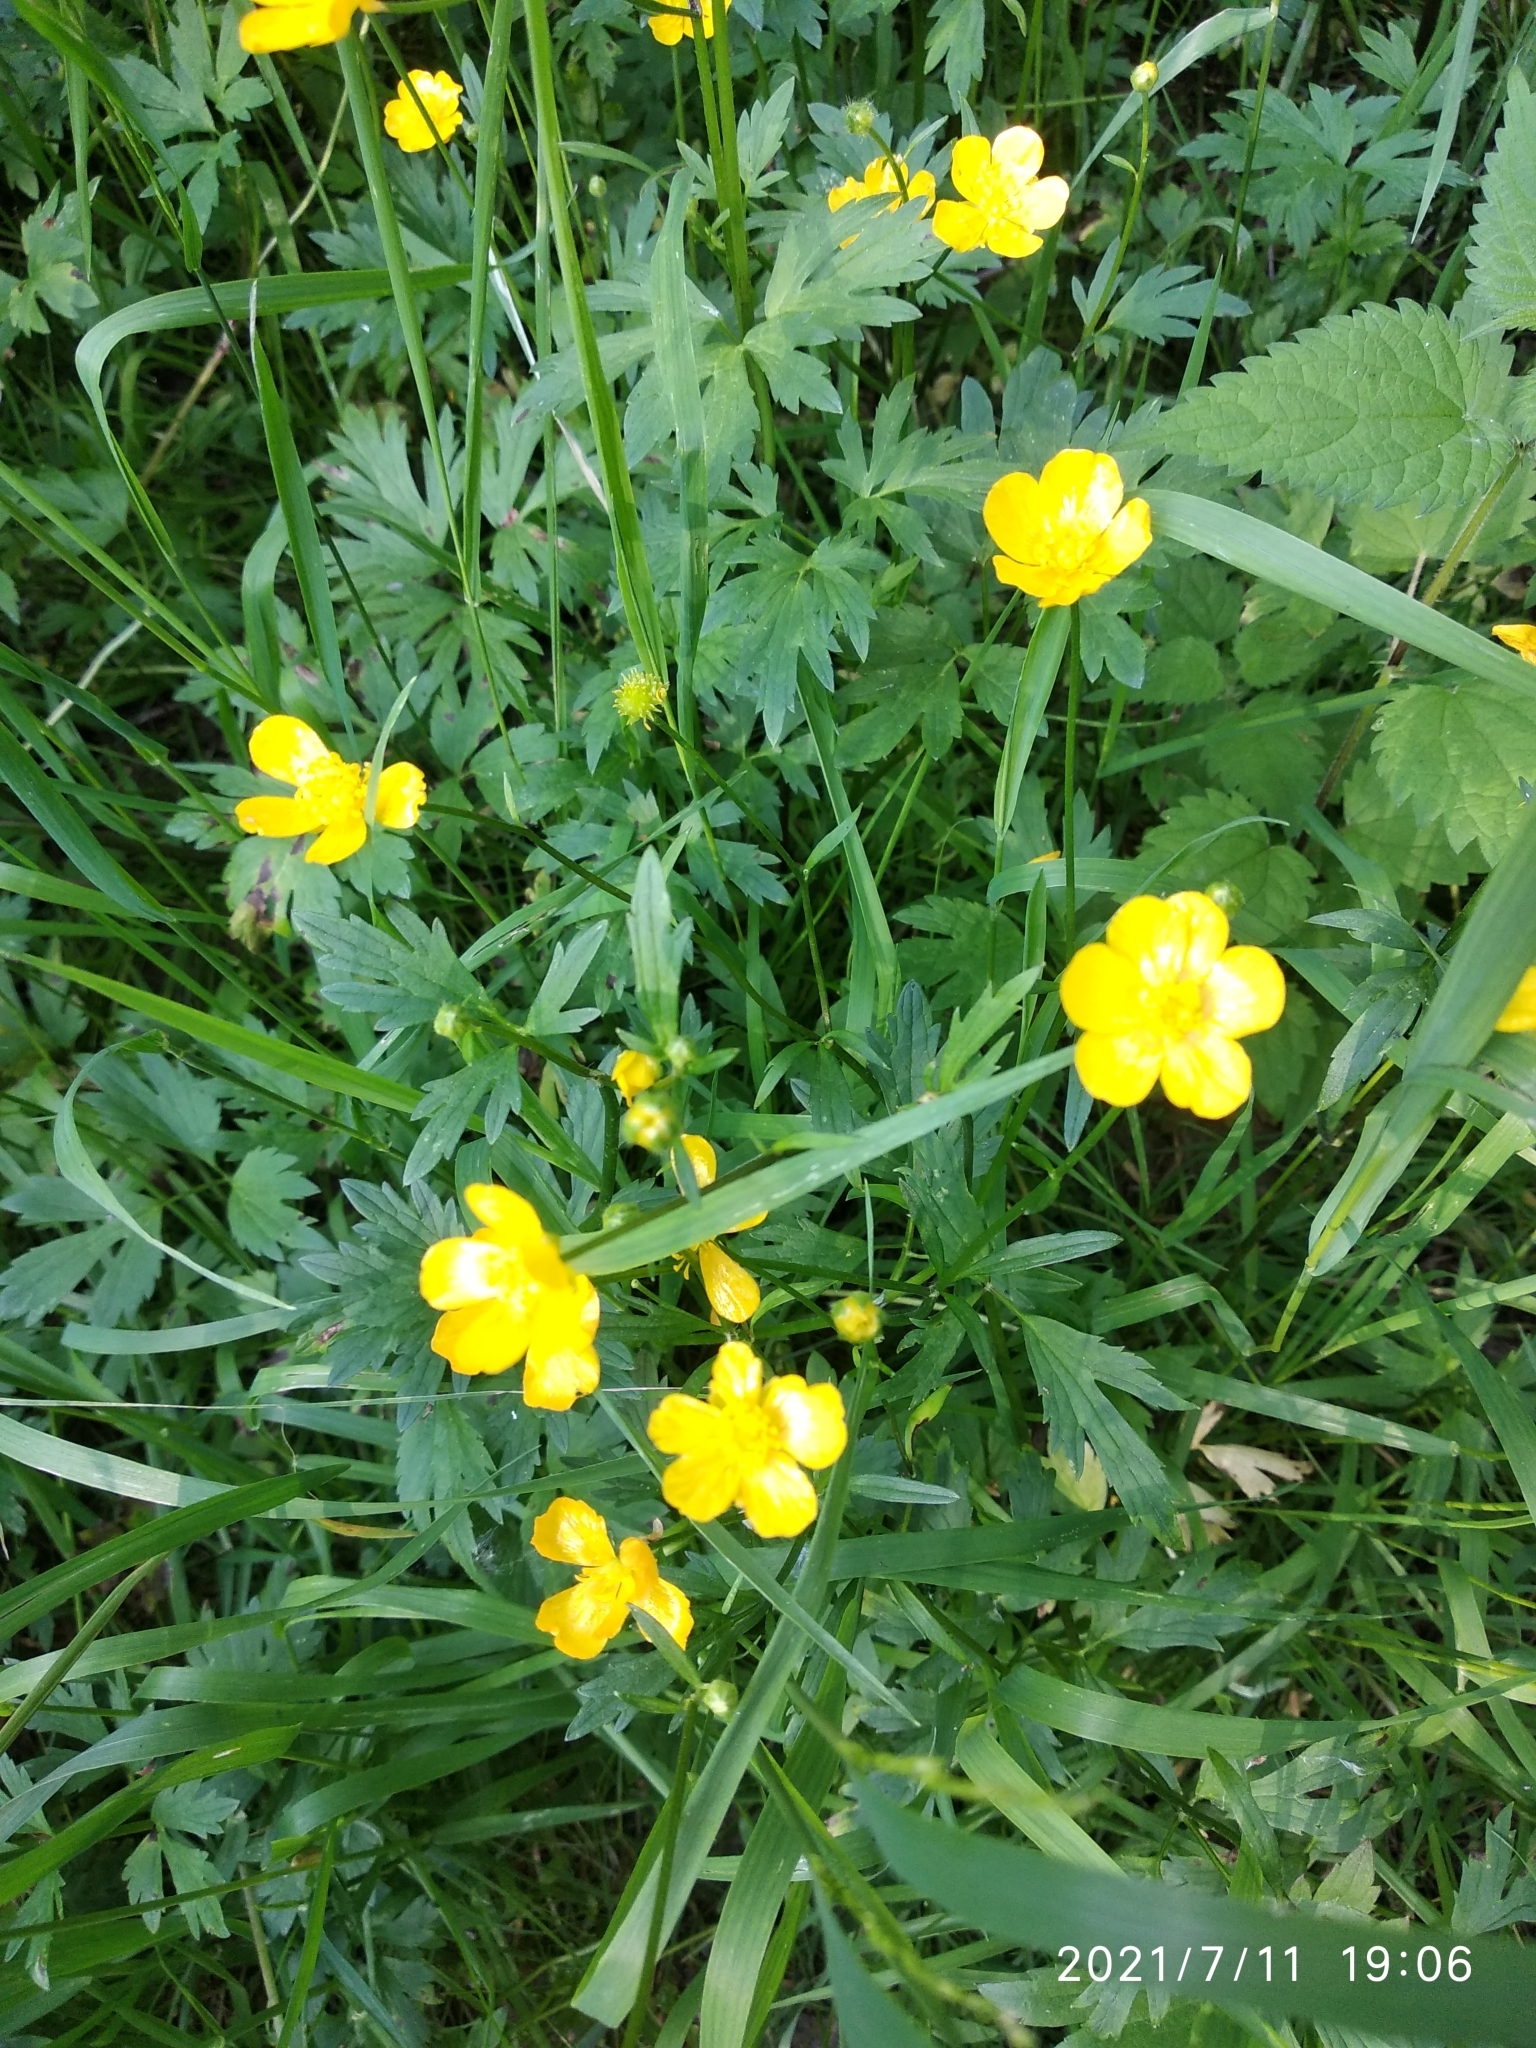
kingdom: Plantae
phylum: Tracheophyta
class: Magnoliopsida
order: Ranunculales
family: Ranunculaceae
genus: Ranunculus
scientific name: Ranunculus repens
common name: Creeping buttercup
